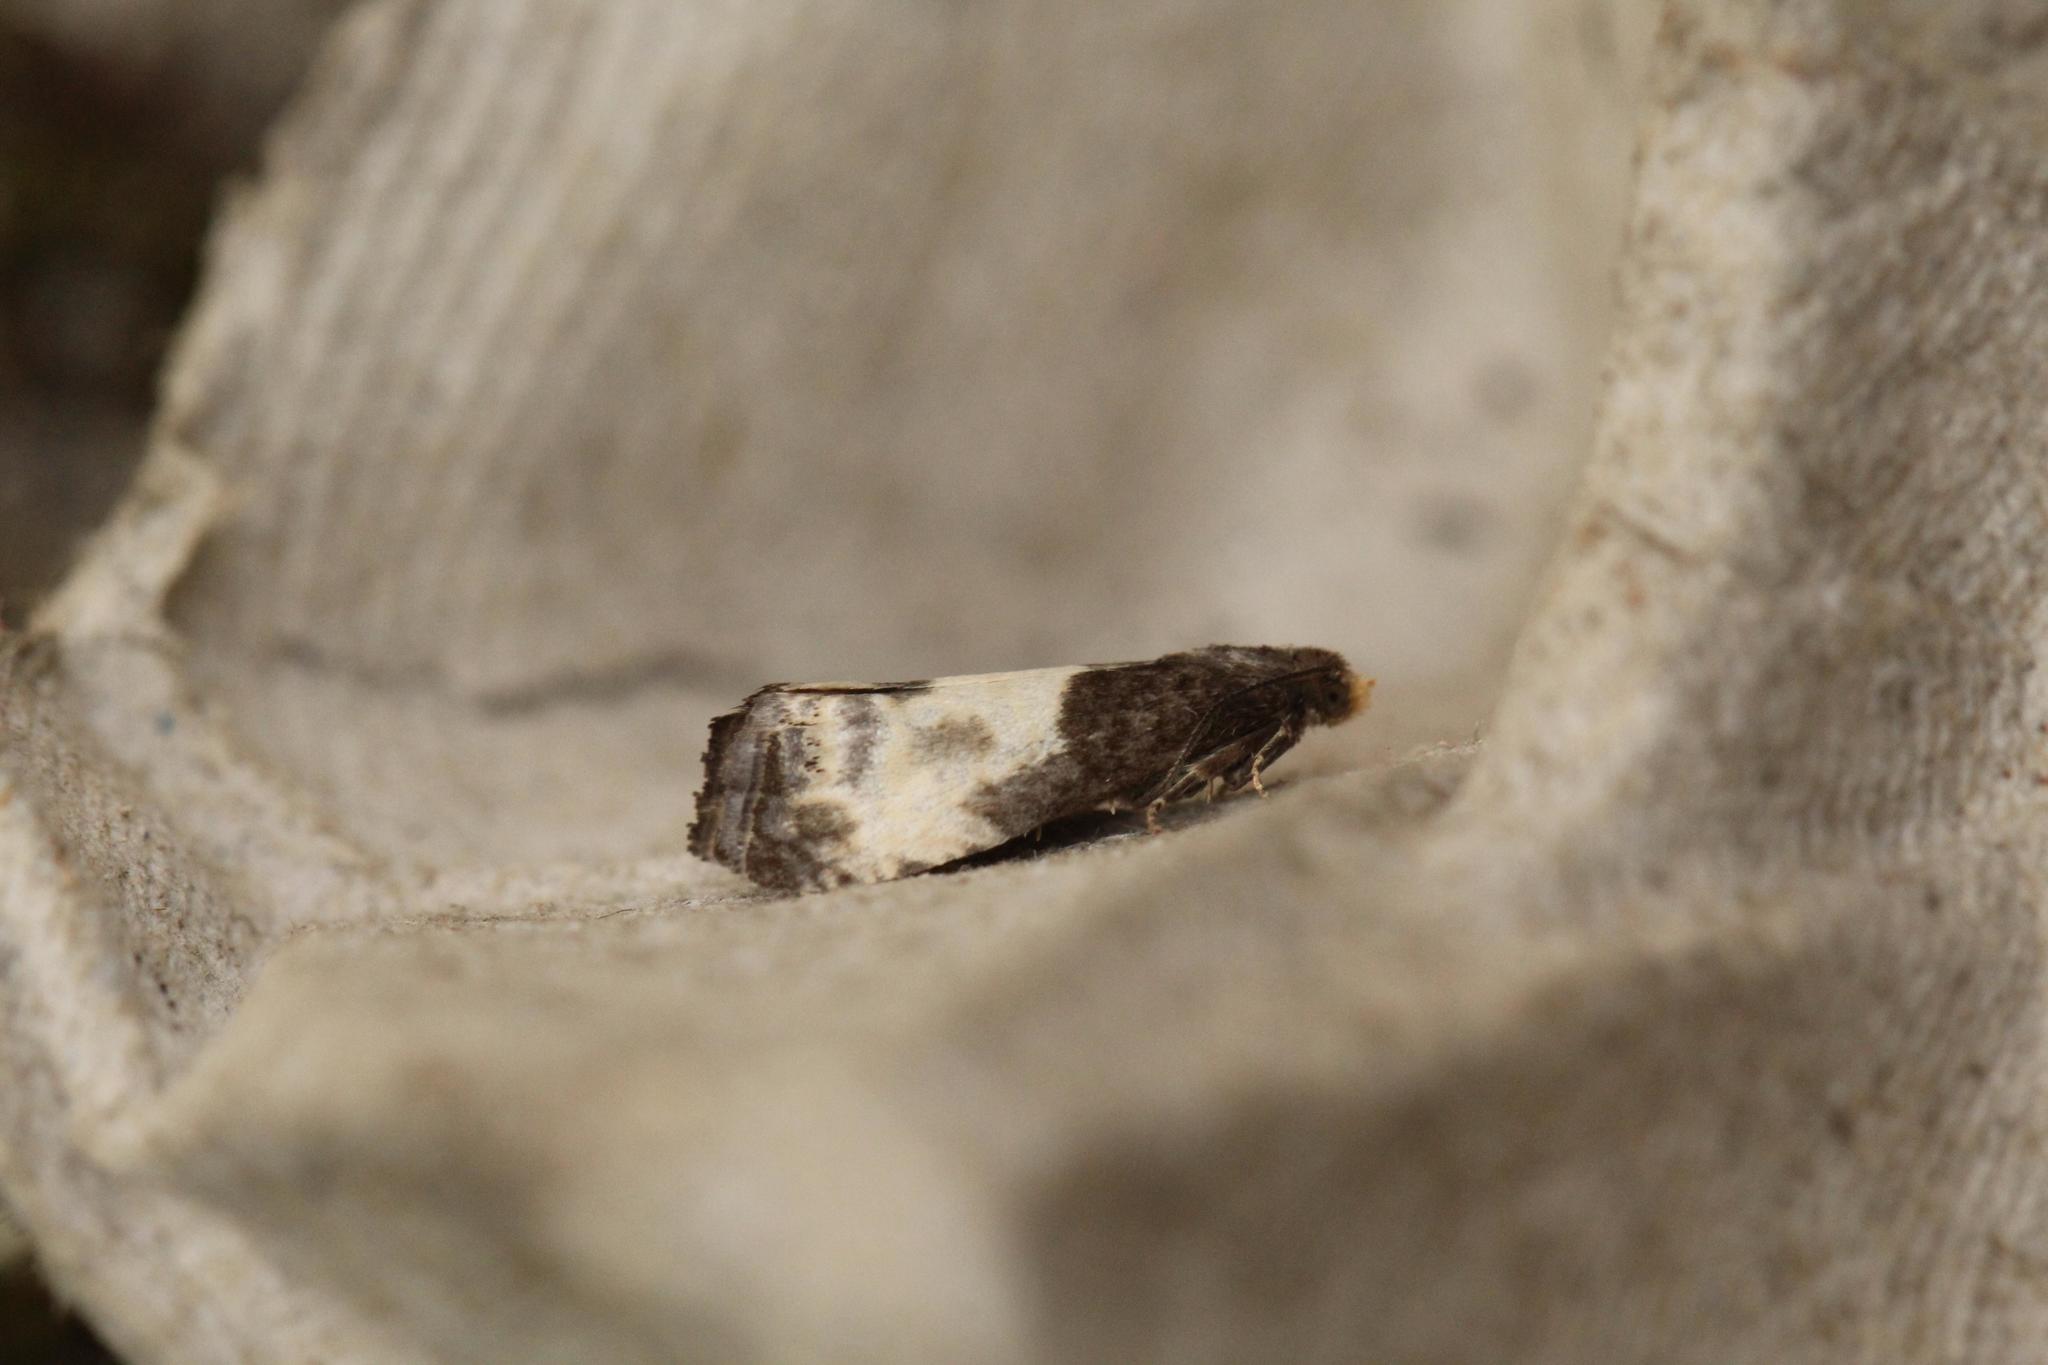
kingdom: Animalia
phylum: Arthropoda
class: Insecta
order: Lepidoptera
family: Tortricidae
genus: Notocelia
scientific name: Notocelia cynosbatella
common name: Yellow-faced bell moth
